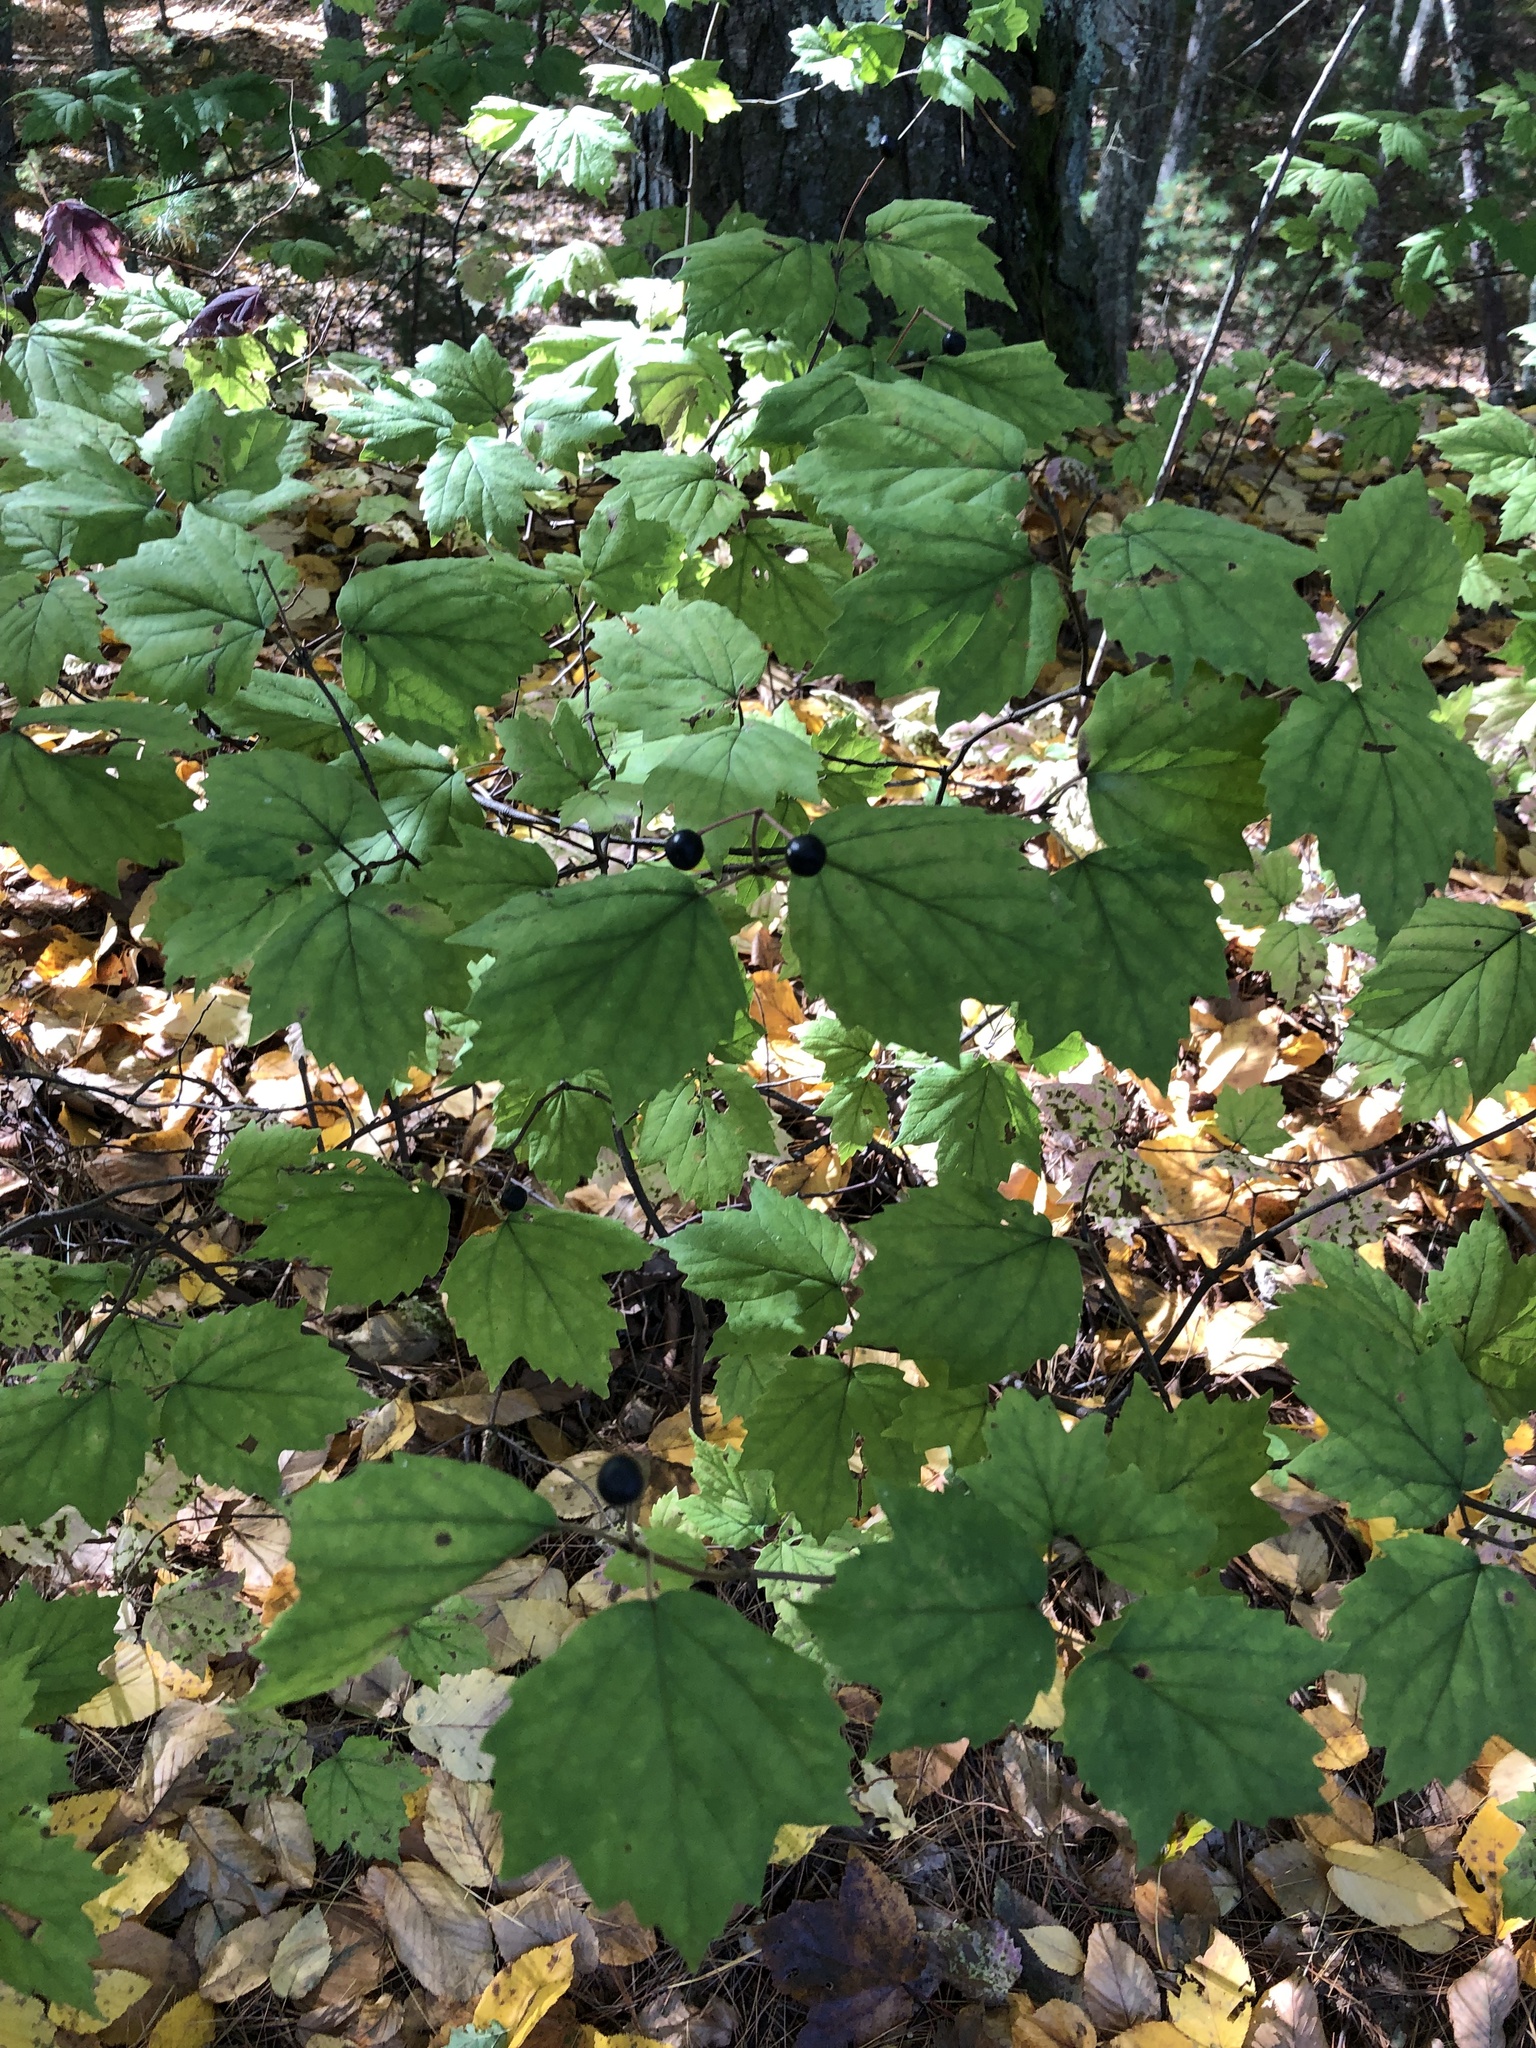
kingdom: Plantae
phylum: Tracheophyta
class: Magnoliopsida
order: Dipsacales
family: Viburnaceae
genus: Viburnum
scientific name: Viburnum acerifolium
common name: Dockmackie
